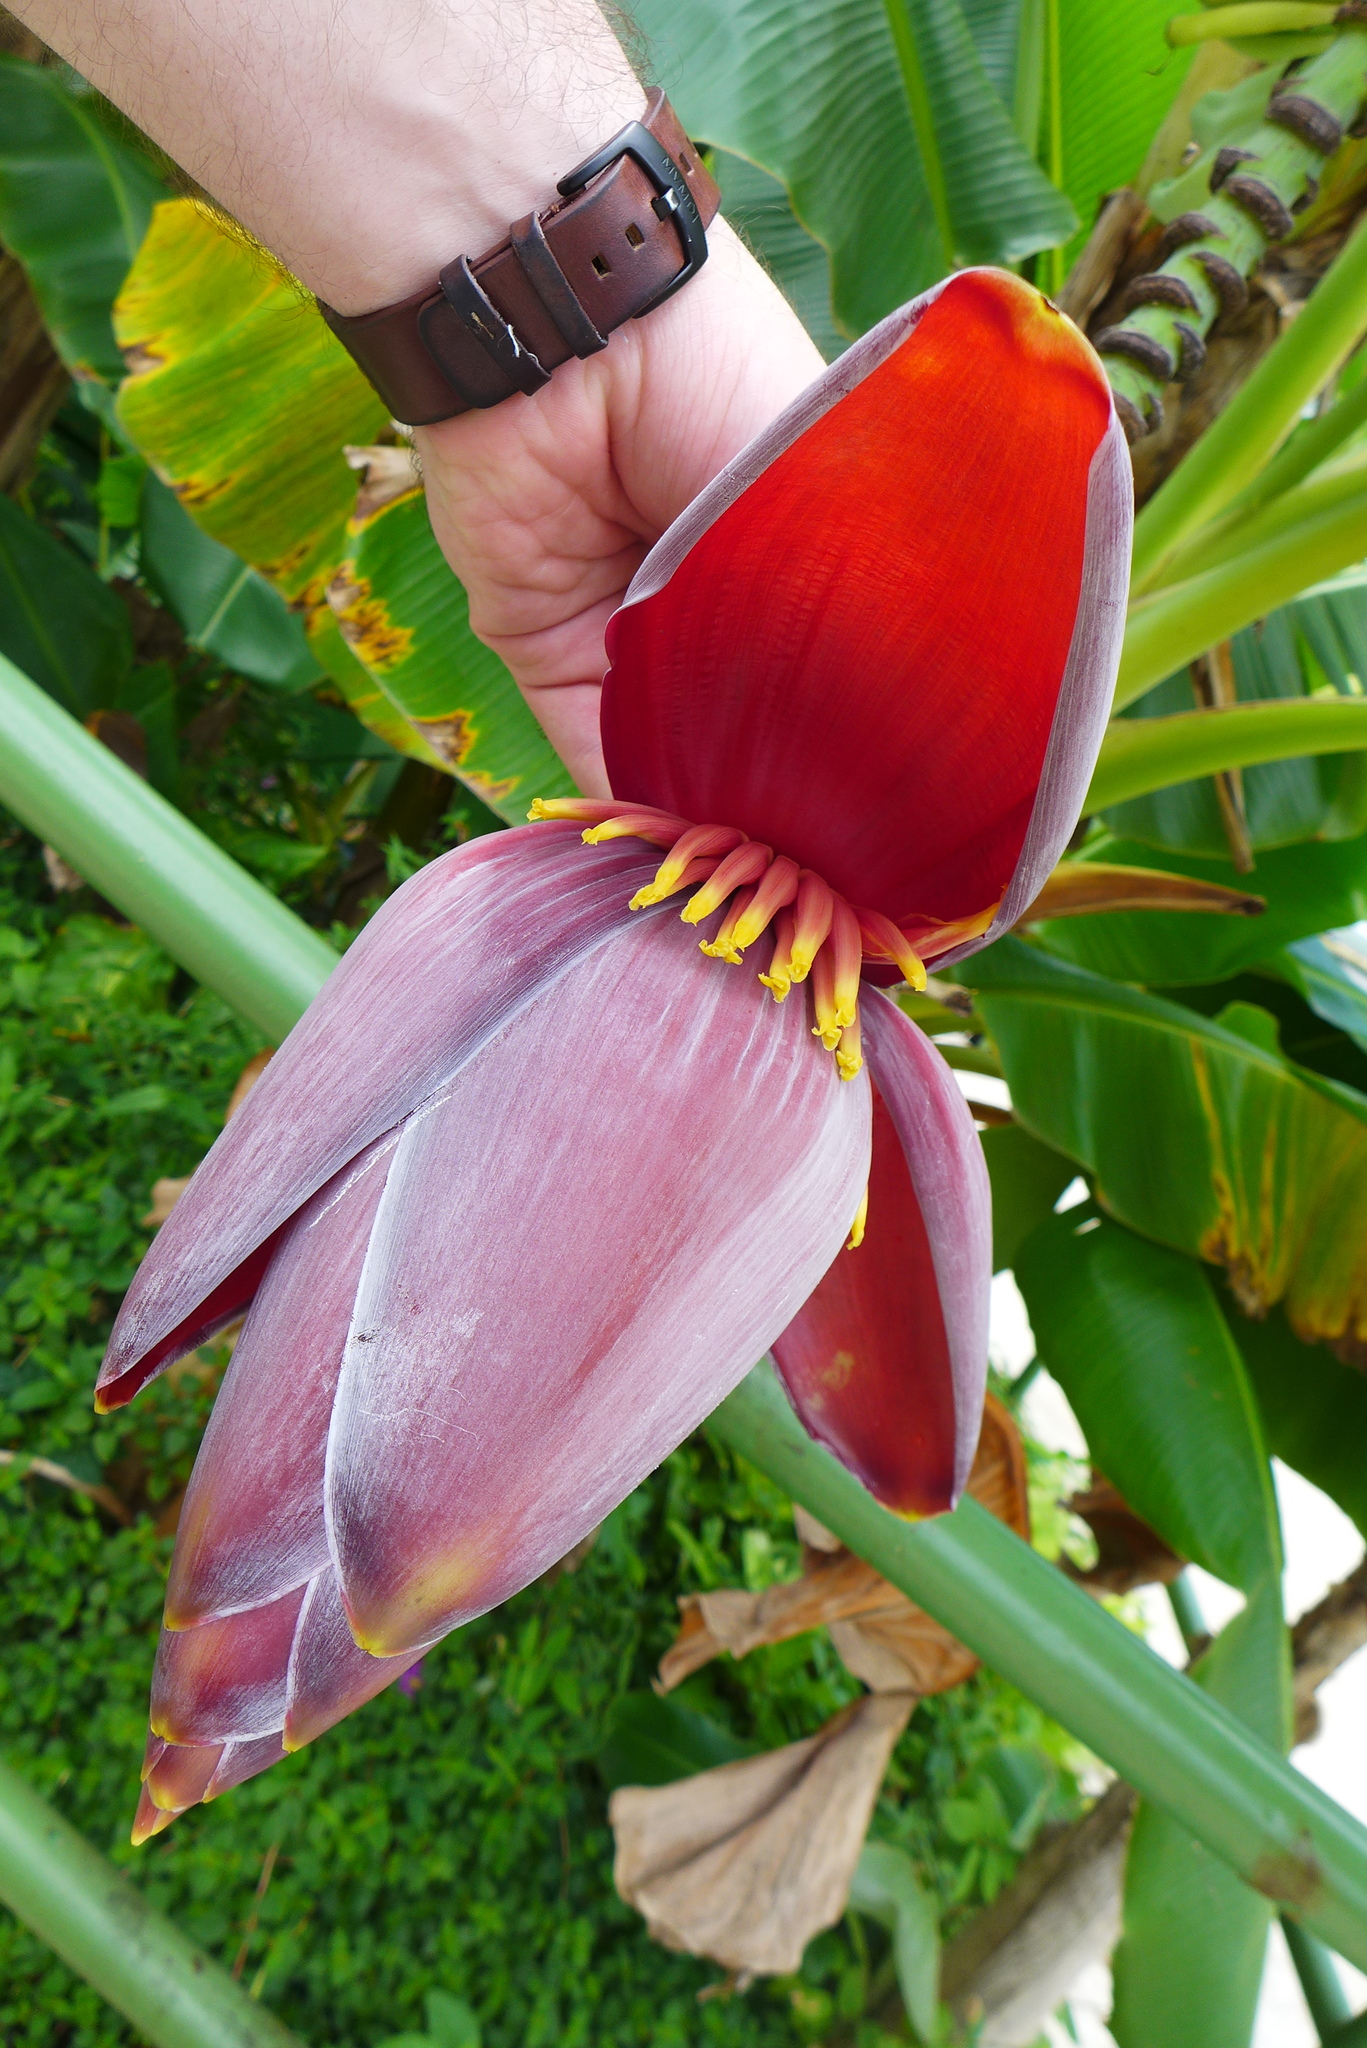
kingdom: Plantae
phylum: Tracheophyta
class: Liliopsida
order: Zingiberales
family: Musaceae
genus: Musa
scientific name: Musa paradisiaca
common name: French plantain
